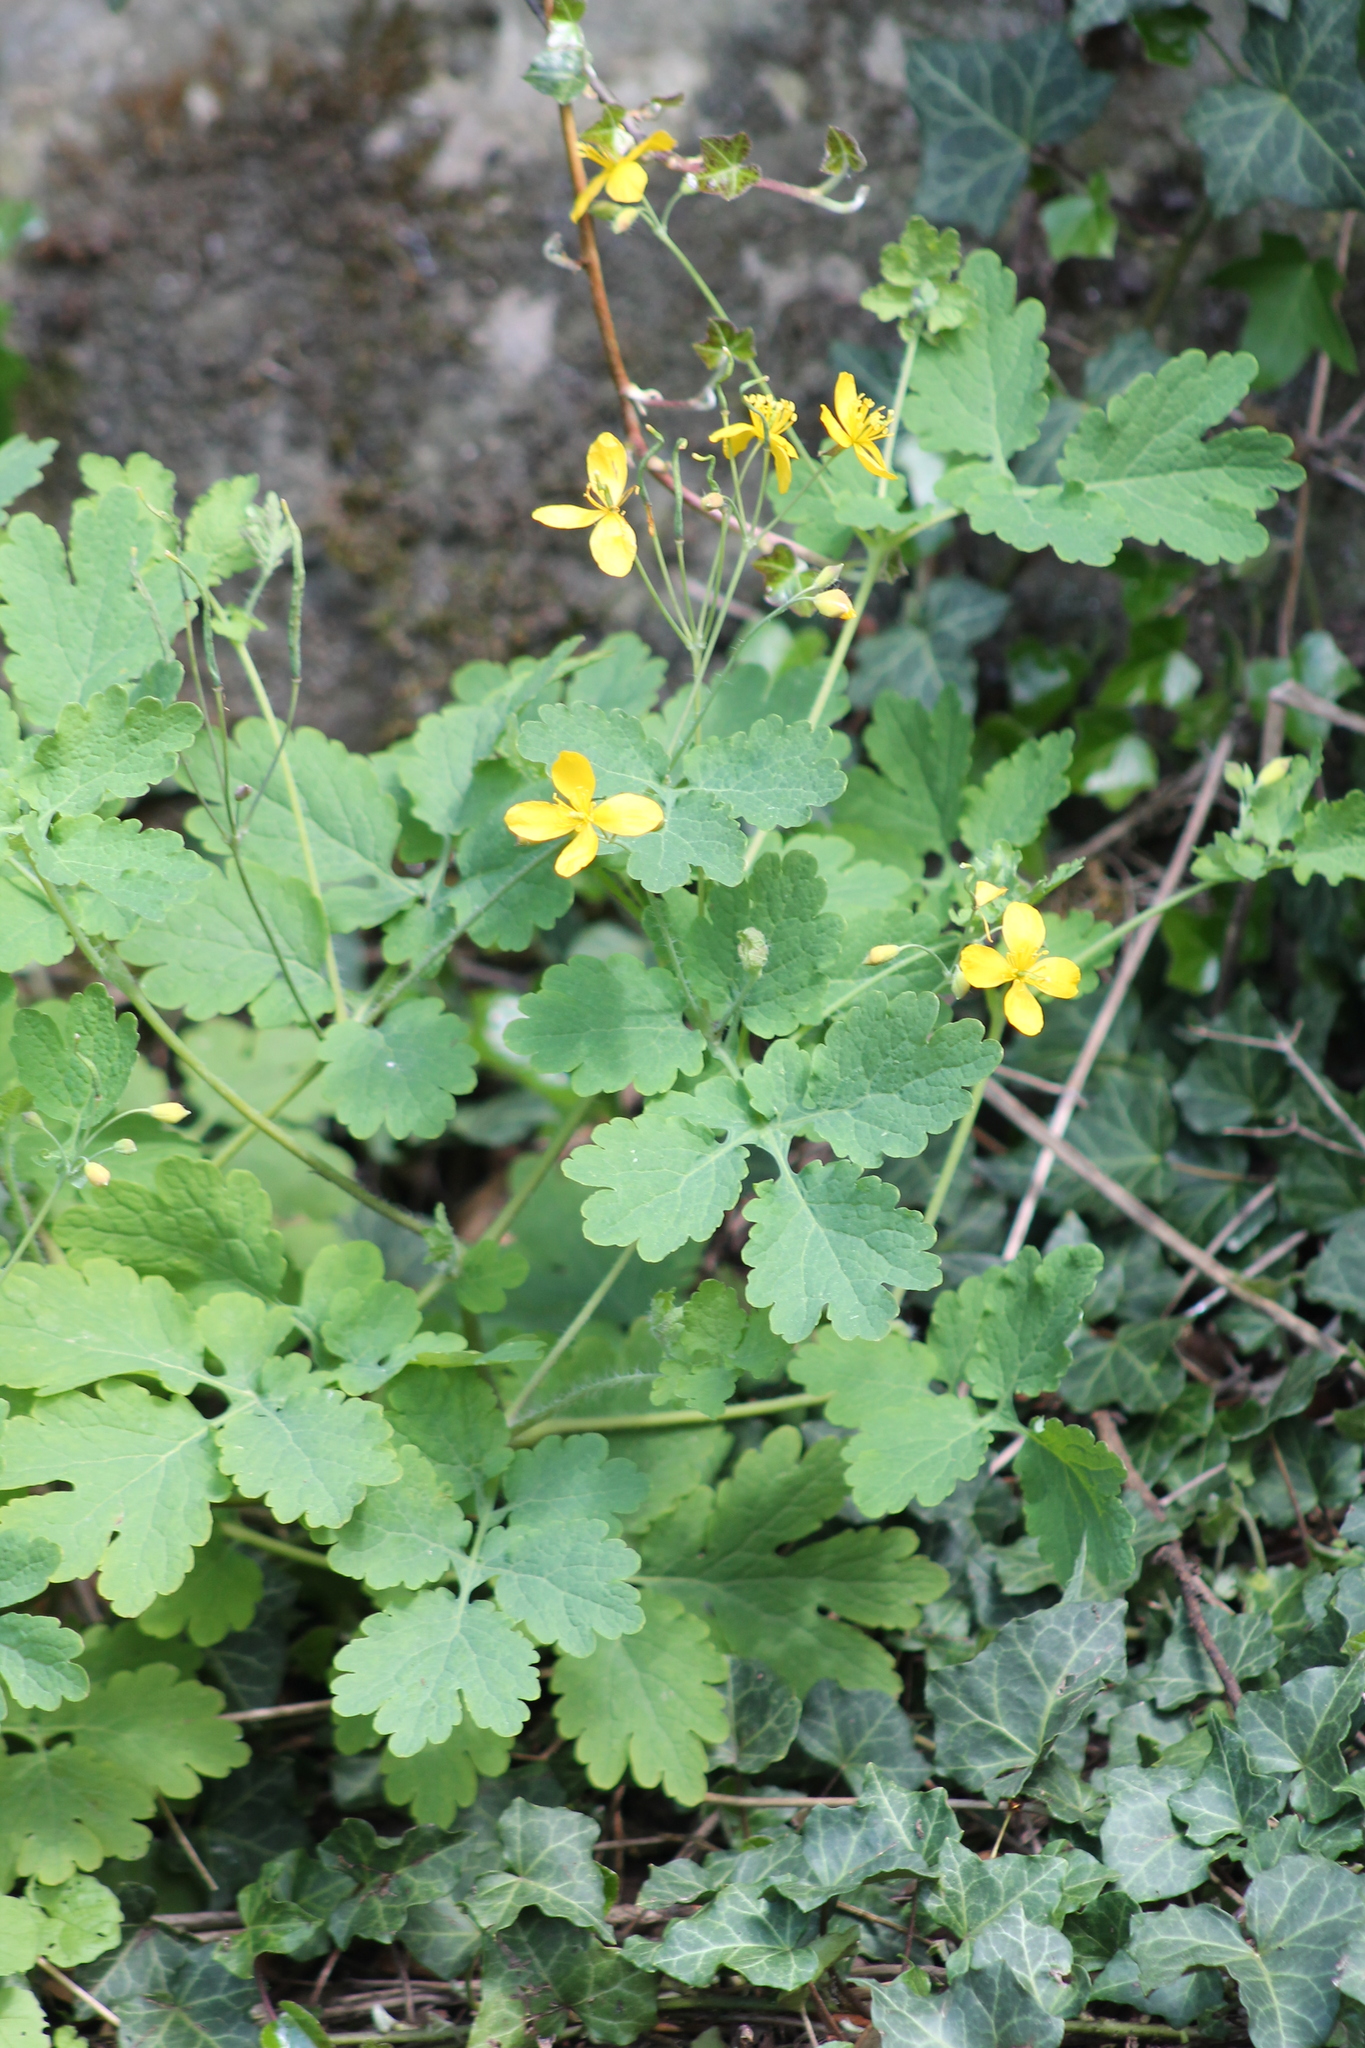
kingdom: Plantae
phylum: Tracheophyta
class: Magnoliopsida
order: Ranunculales
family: Papaveraceae
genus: Chelidonium
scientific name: Chelidonium majus
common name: Greater celandine
